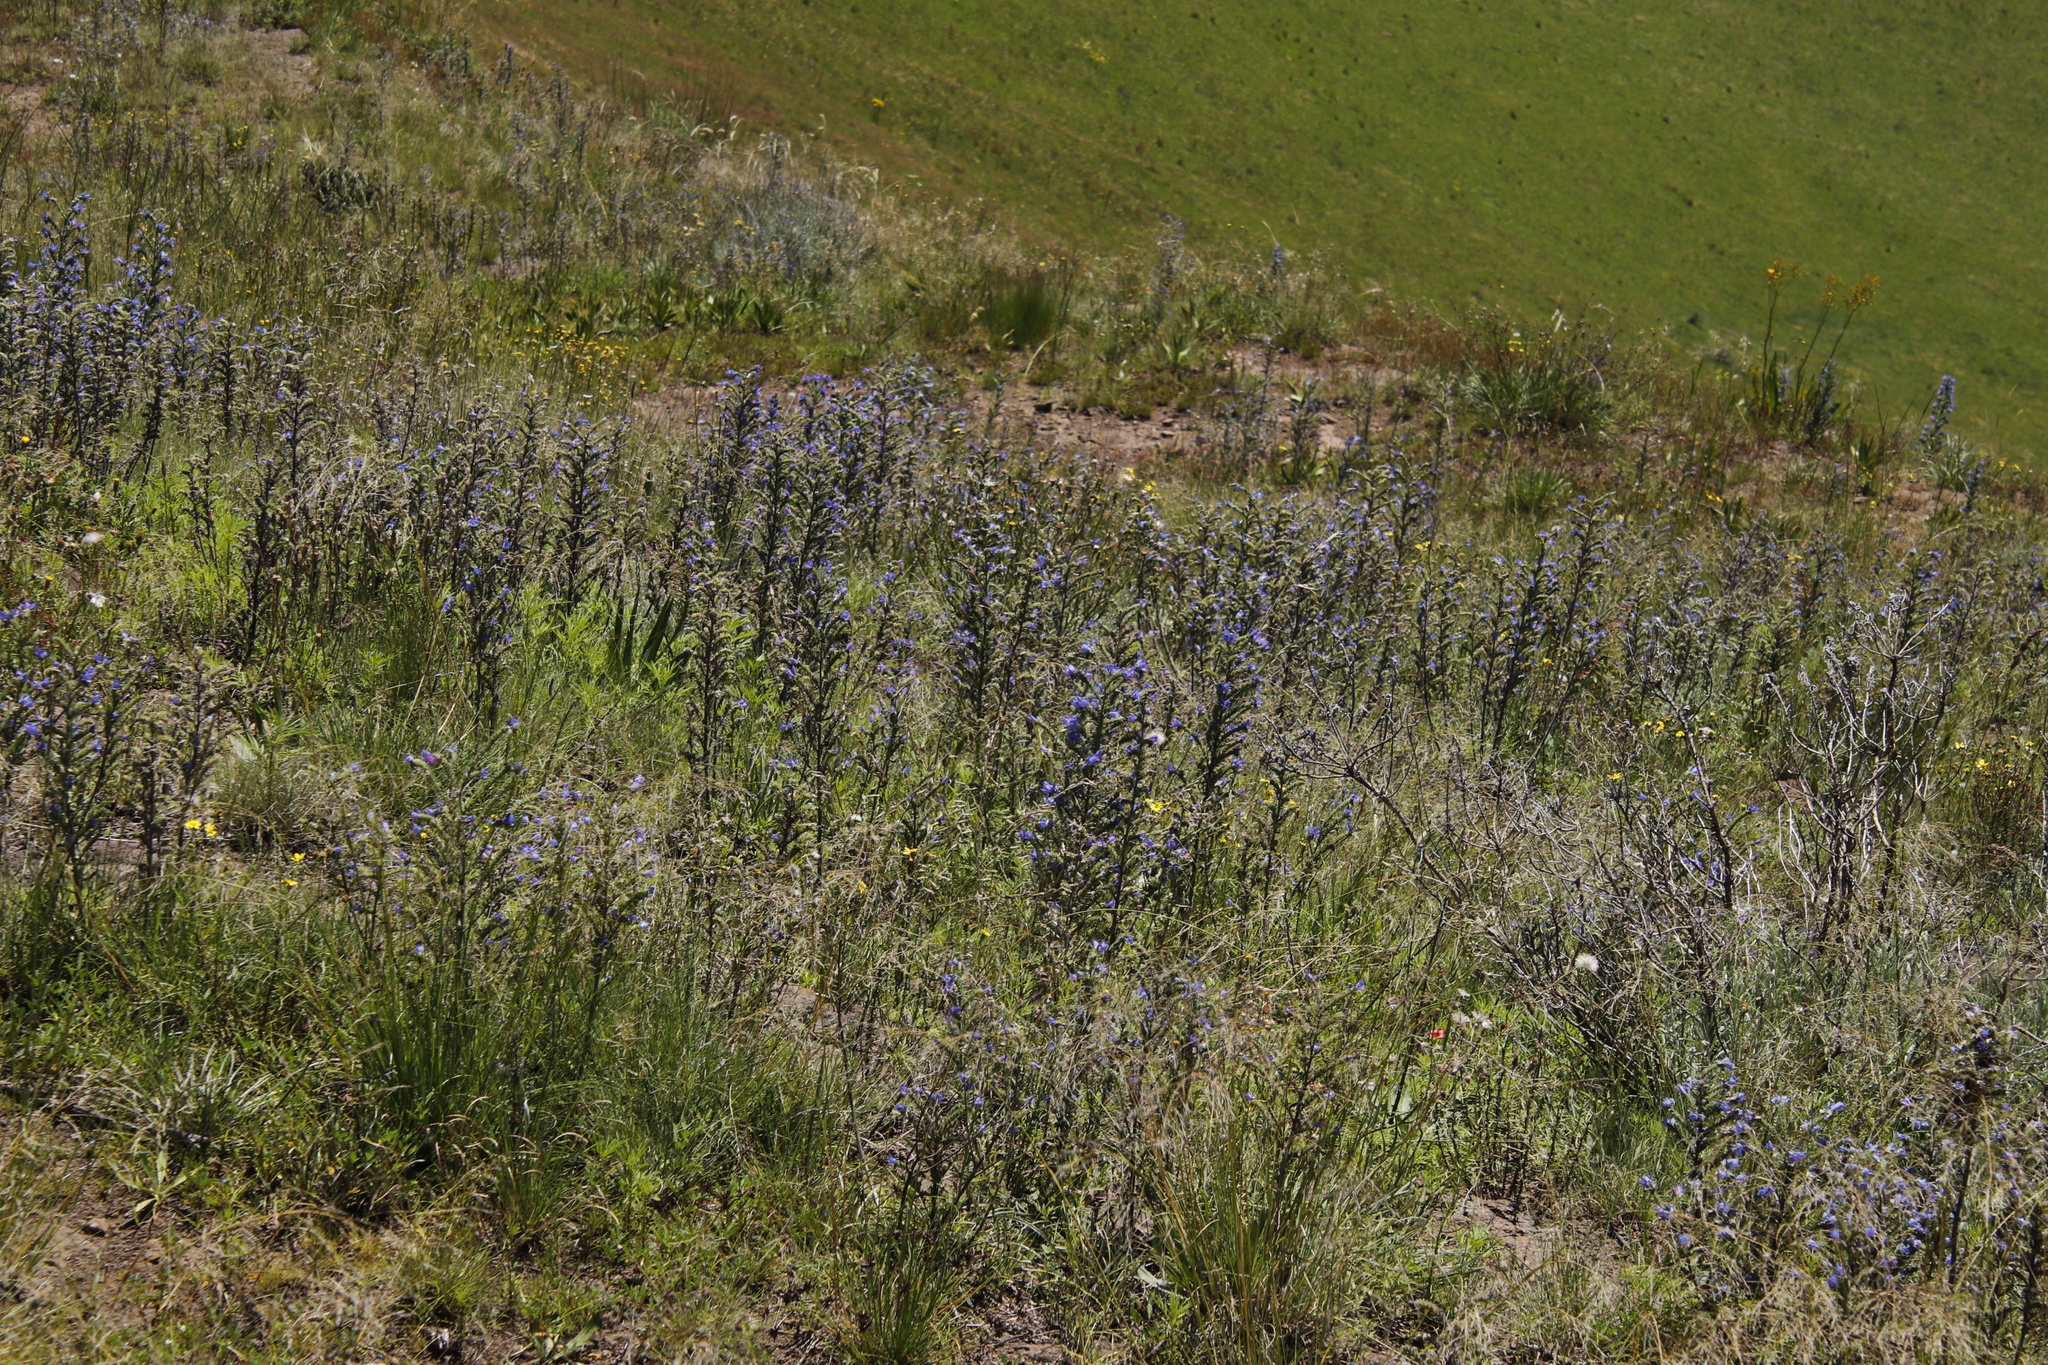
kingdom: Plantae
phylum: Tracheophyta
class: Magnoliopsida
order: Boraginales
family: Boraginaceae
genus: Echium
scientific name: Echium vulgare
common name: Common viper's bugloss
